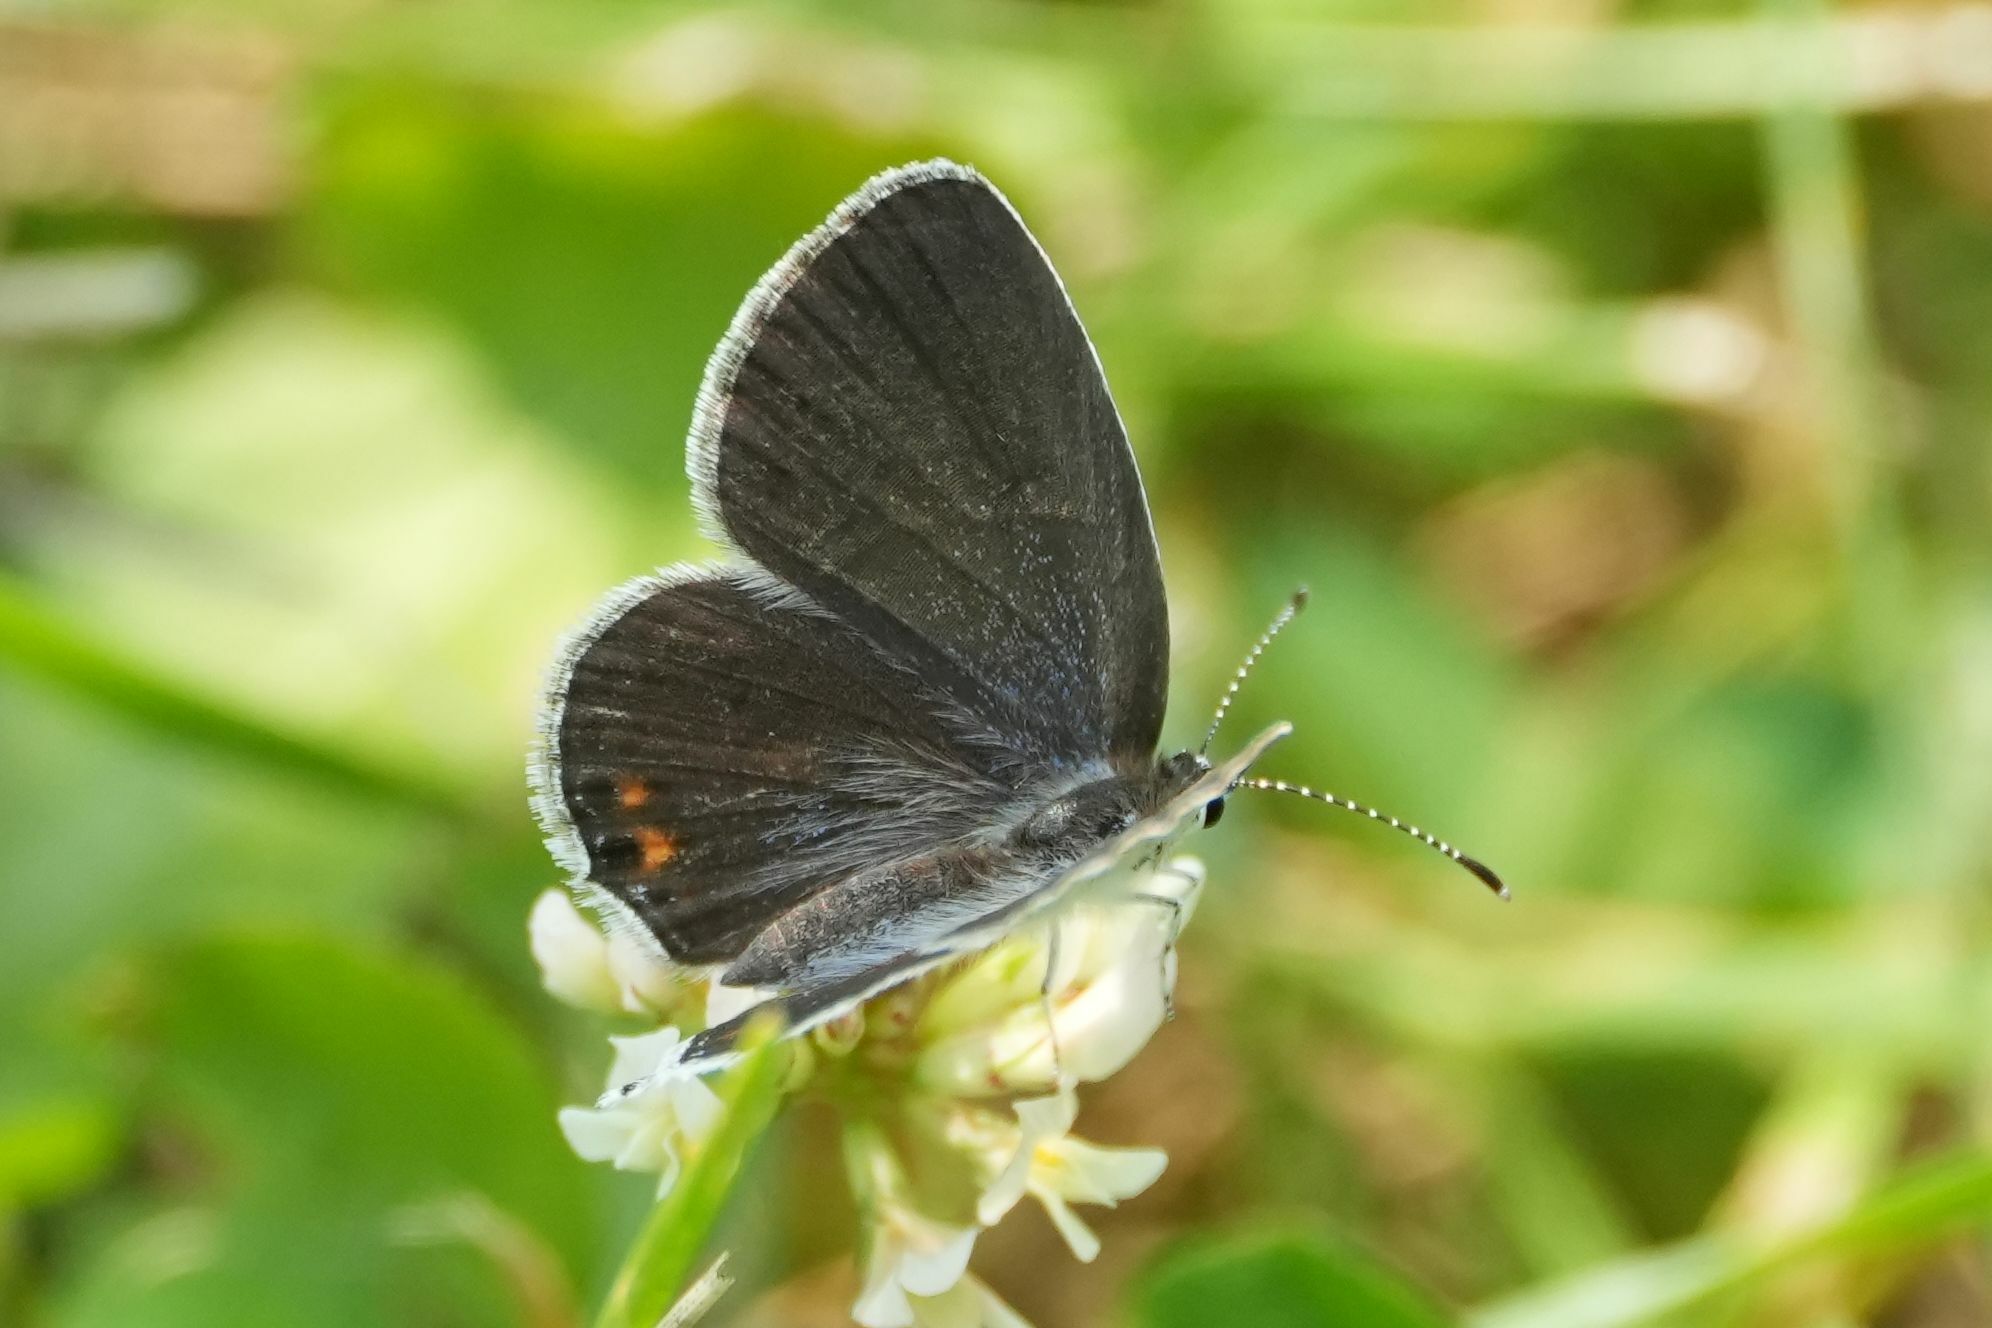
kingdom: Animalia
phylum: Arthropoda
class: Insecta
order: Lepidoptera
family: Lycaenidae
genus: Elkalyce
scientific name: Elkalyce comyntas
